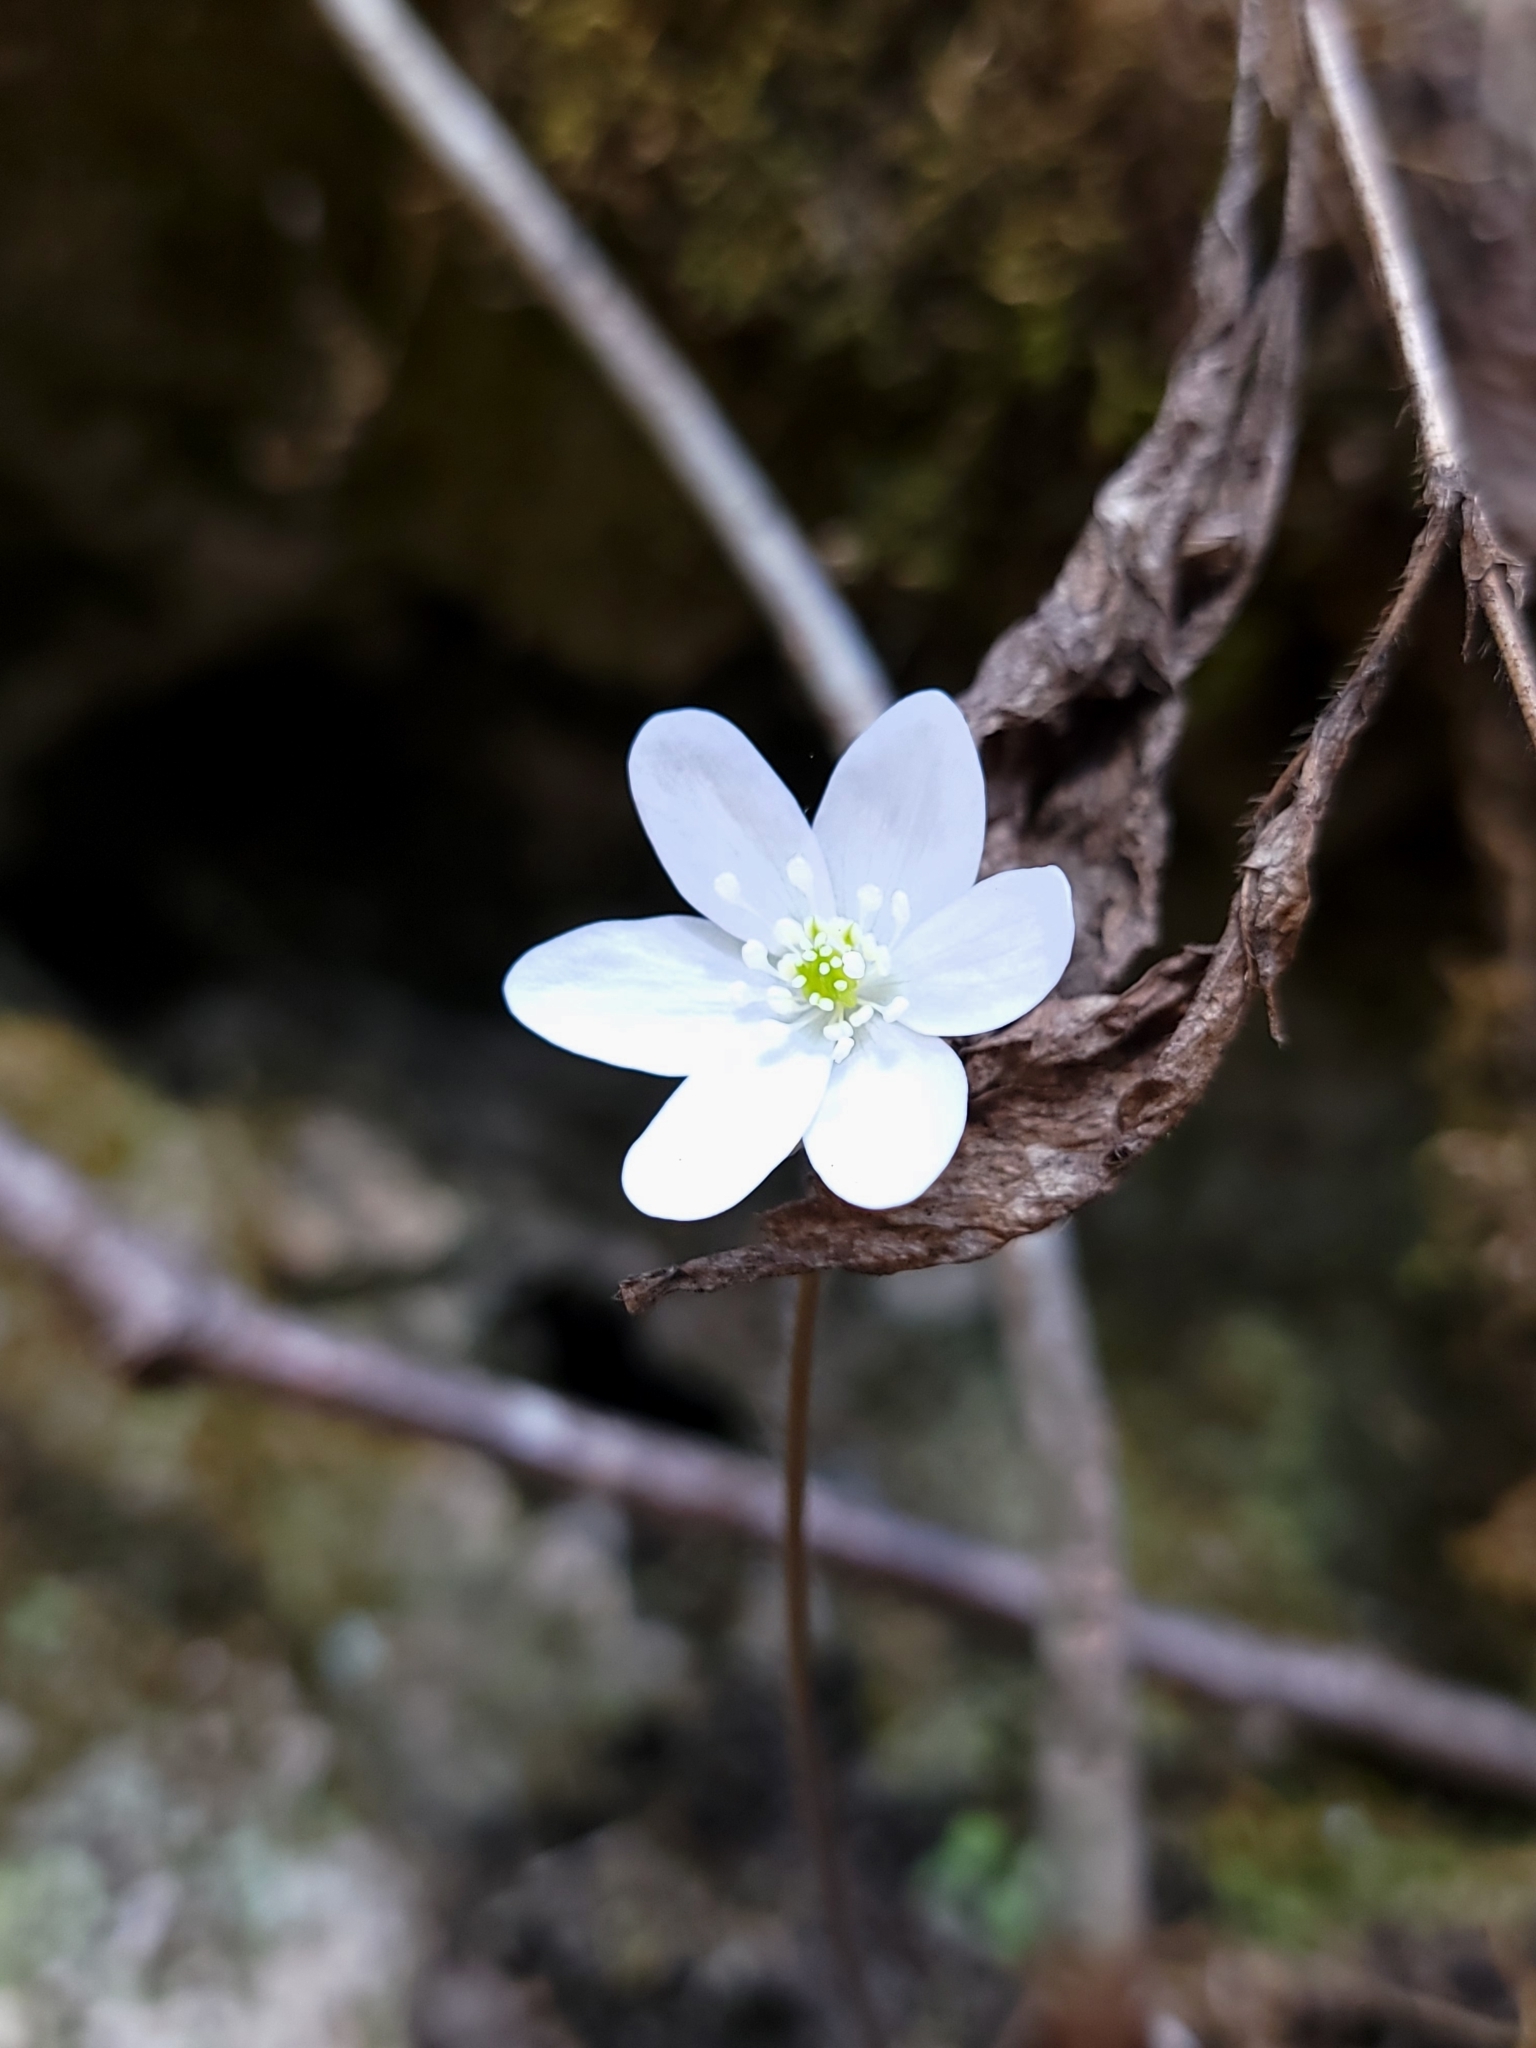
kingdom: Plantae
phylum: Tracheophyta
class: Magnoliopsida
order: Ranunculales
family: Ranunculaceae
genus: Hepatica
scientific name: Hepatica acutiloba
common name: Sharp-lobed hepatica
